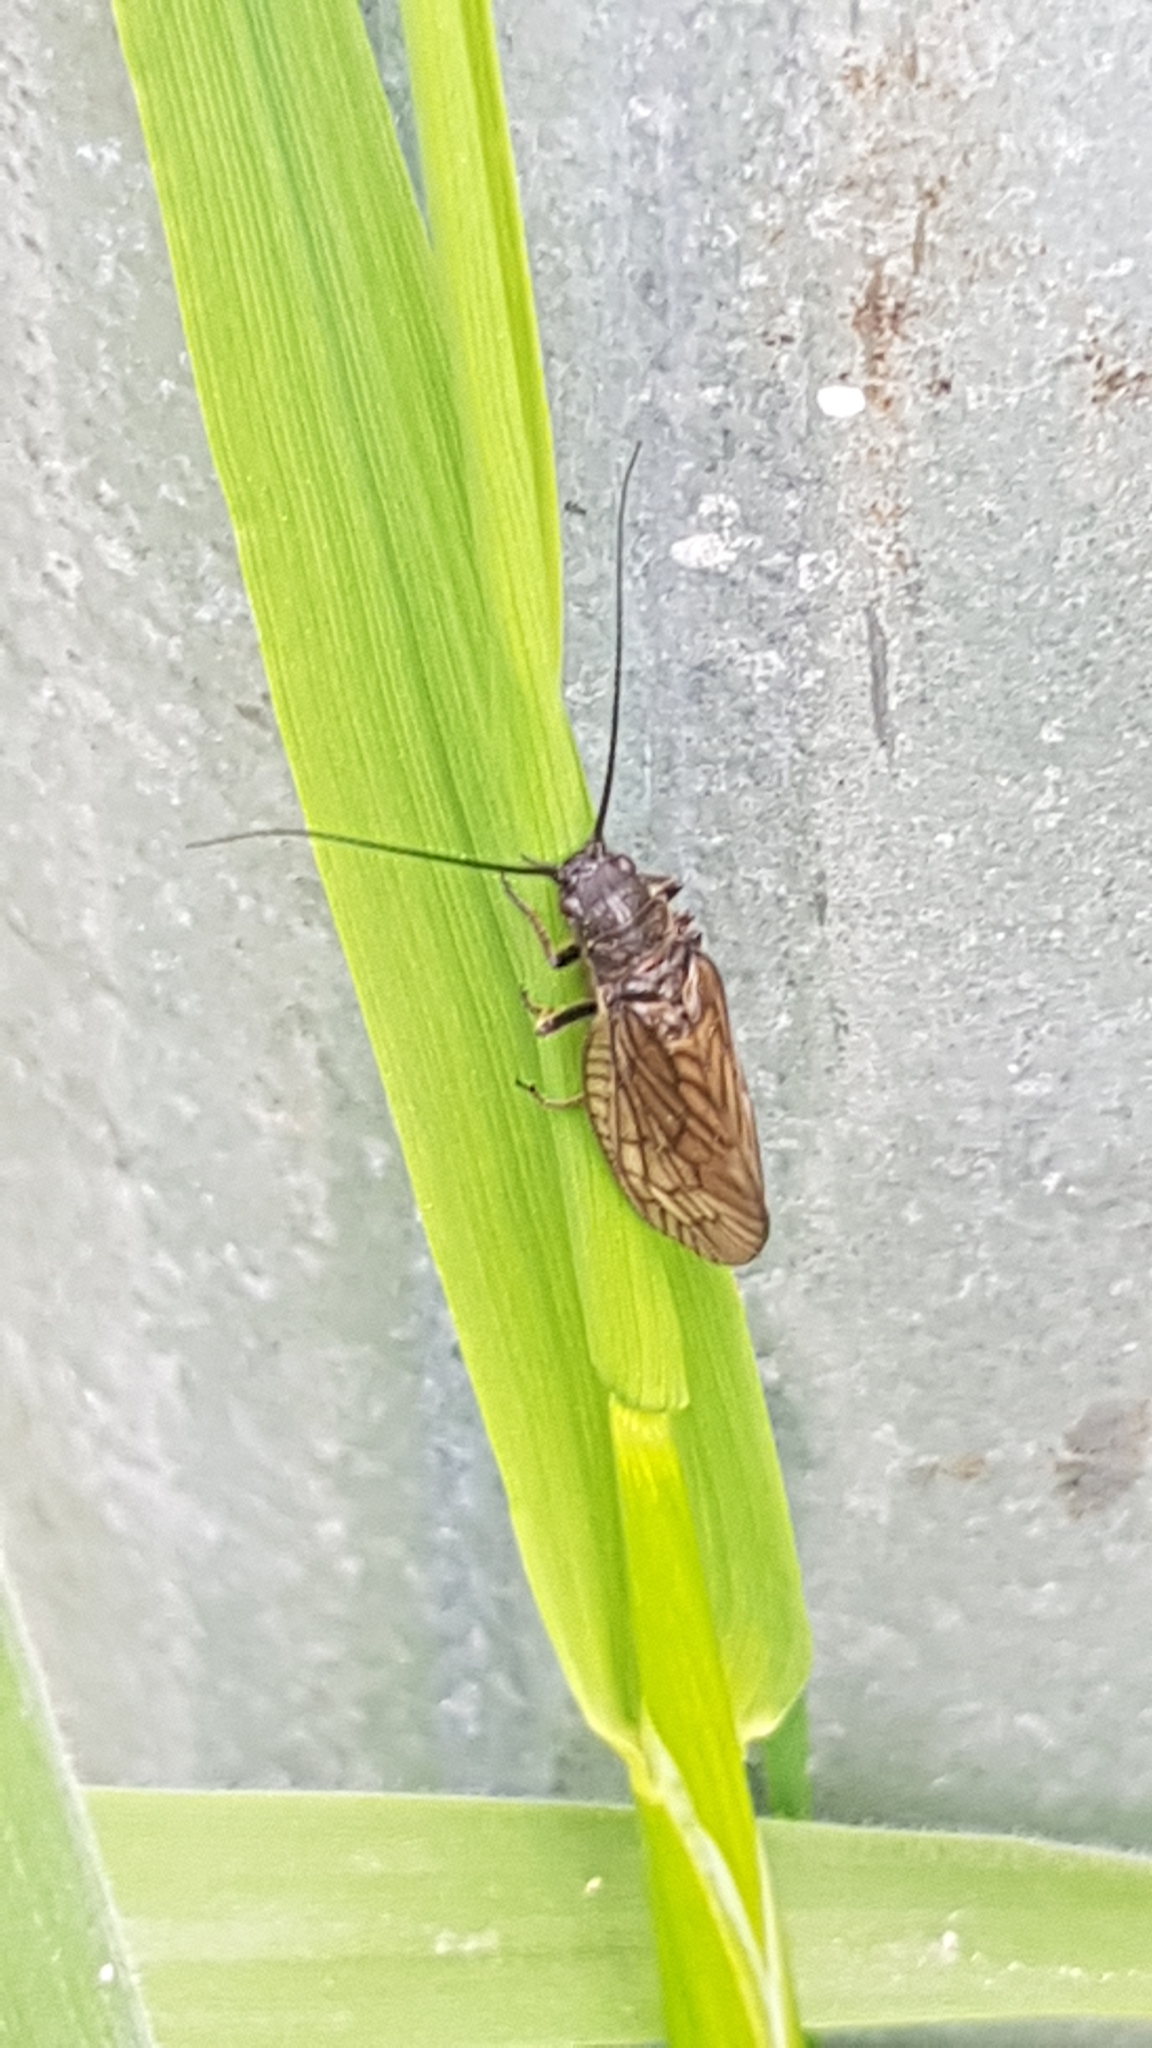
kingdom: Animalia
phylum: Arthropoda
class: Insecta
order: Megaloptera
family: Sialidae
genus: Sialis
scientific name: Sialis
